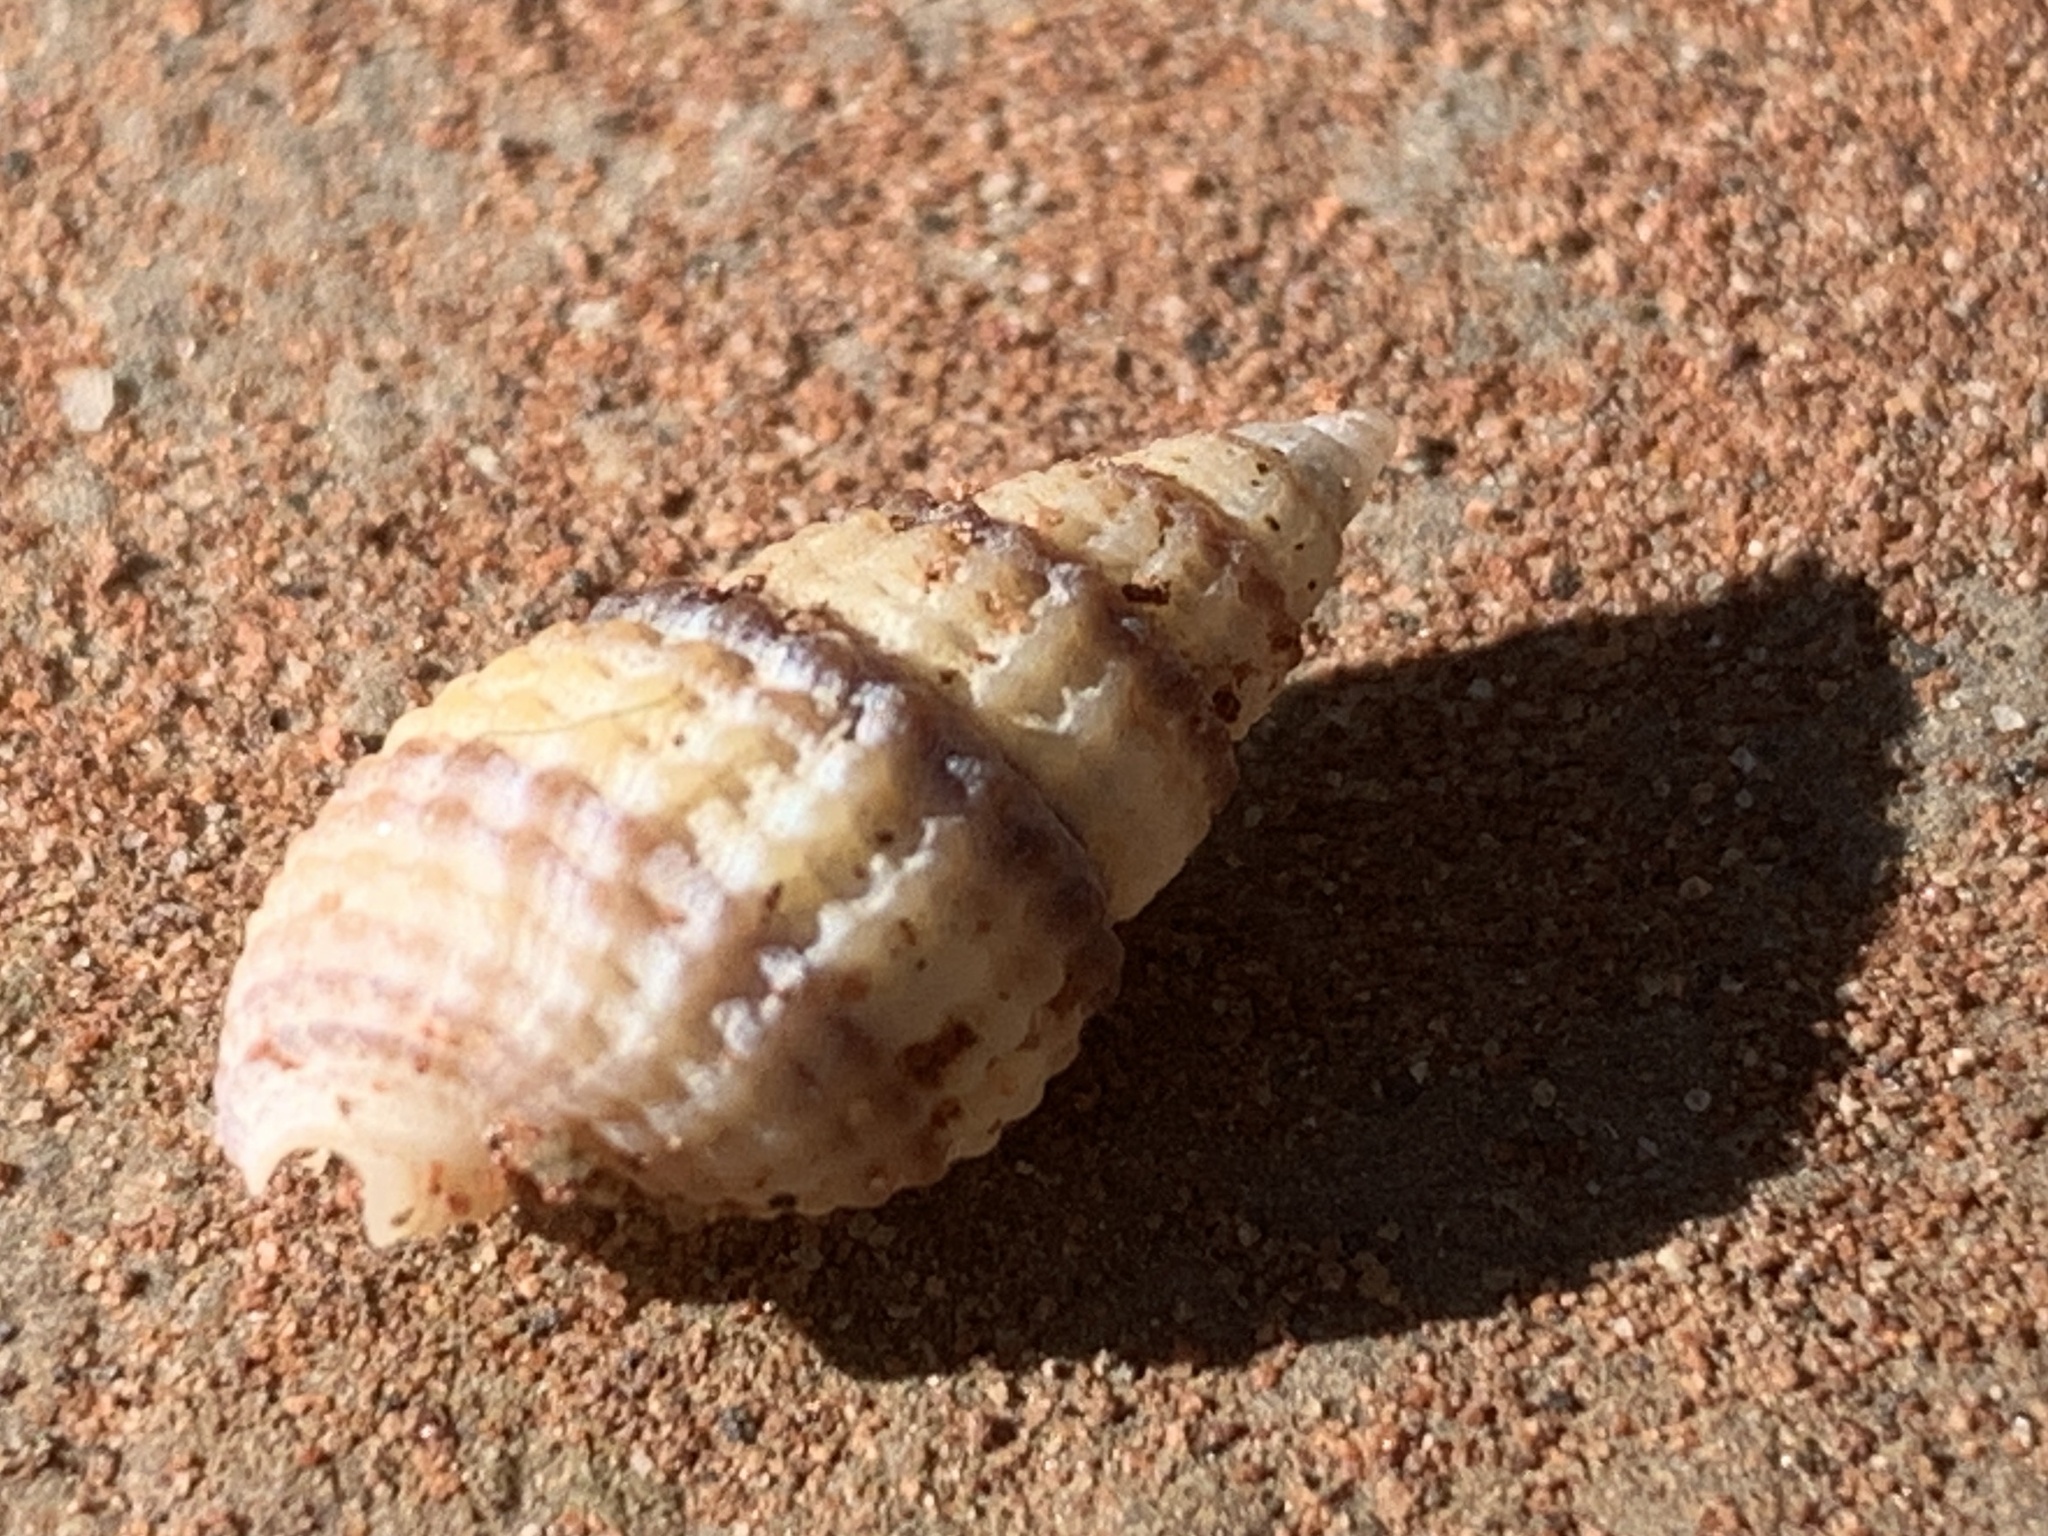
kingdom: Animalia
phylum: Mollusca
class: Gastropoda
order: Neogastropoda
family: Nassariidae
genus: Ilyanassa
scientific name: Ilyanassa trivittata
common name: Three-line mudsnail
